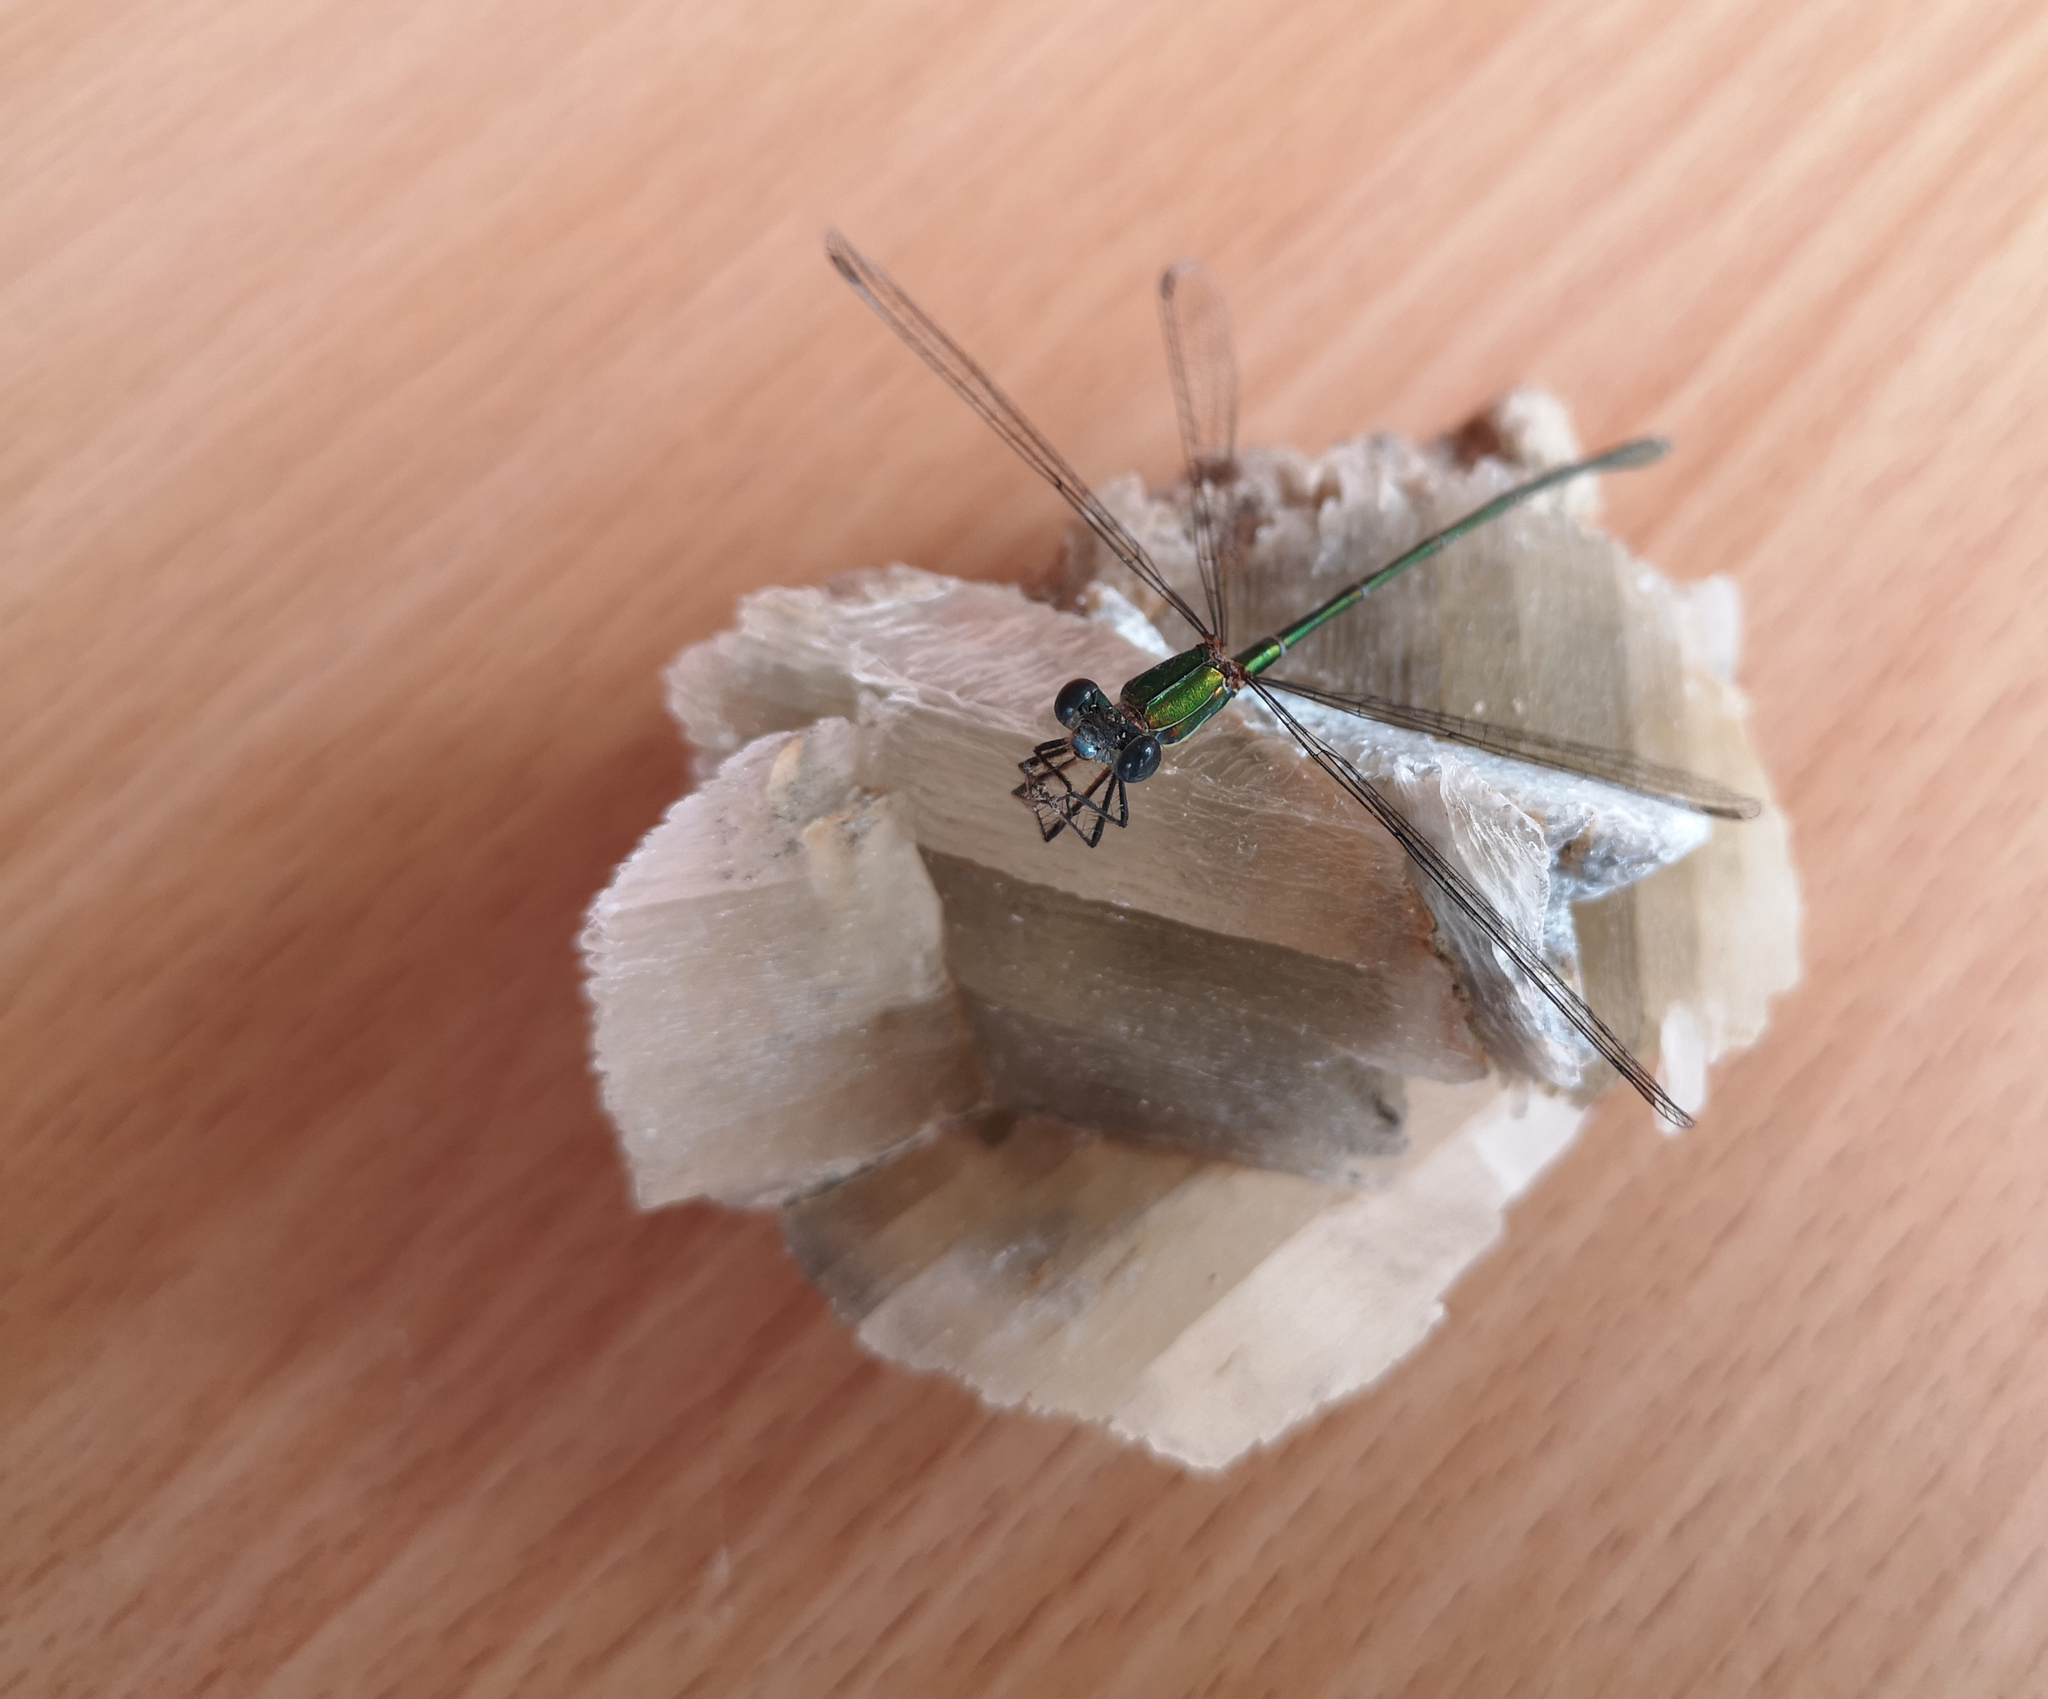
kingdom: Animalia
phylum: Arthropoda
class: Insecta
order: Odonata
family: Lestidae
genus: Chalcolestes
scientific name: Chalcolestes viridis
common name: Green emerald damselfly
